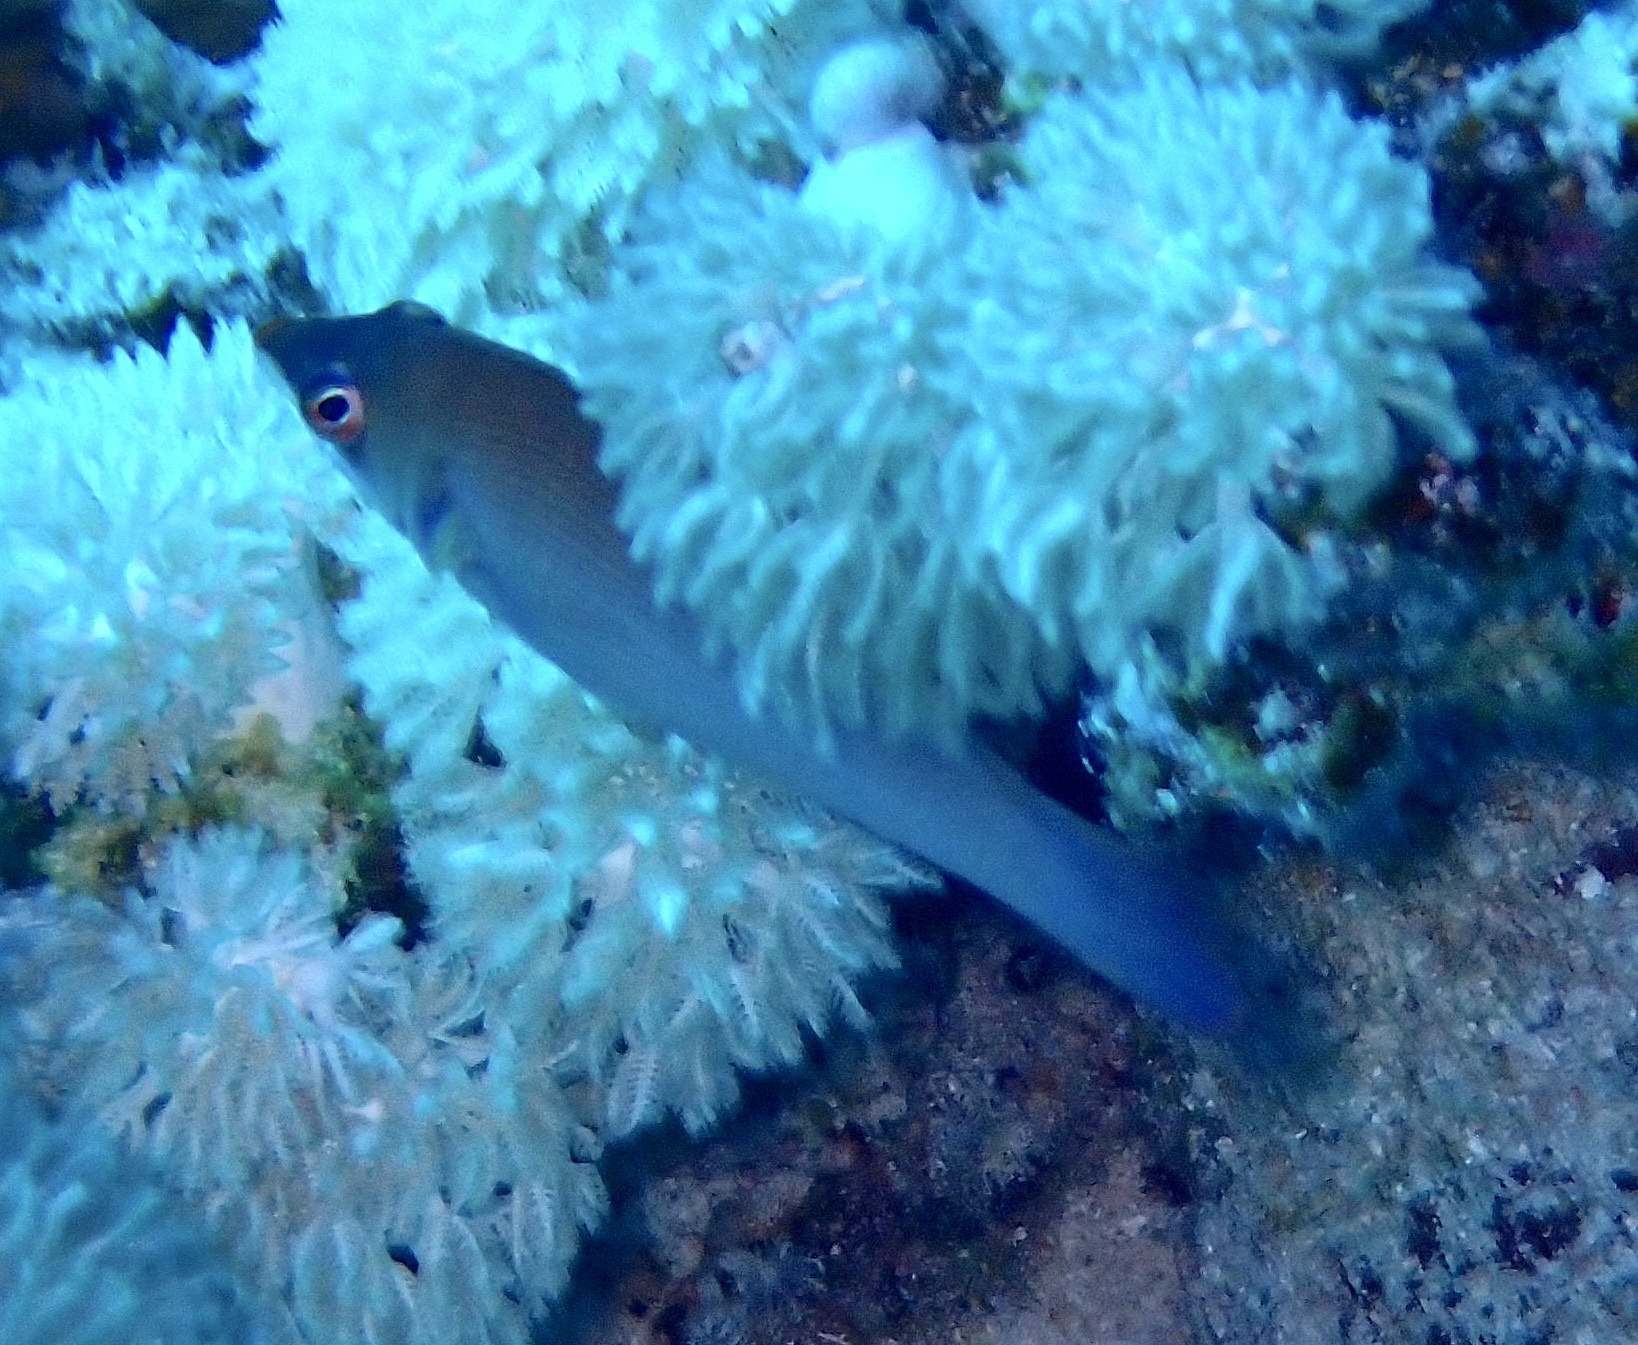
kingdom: Animalia
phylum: Chordata
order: Perciformes
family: Labridae
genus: Pseudocheilinus
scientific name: Pseudocheilinus evanidus
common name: Disappearing wrasse
